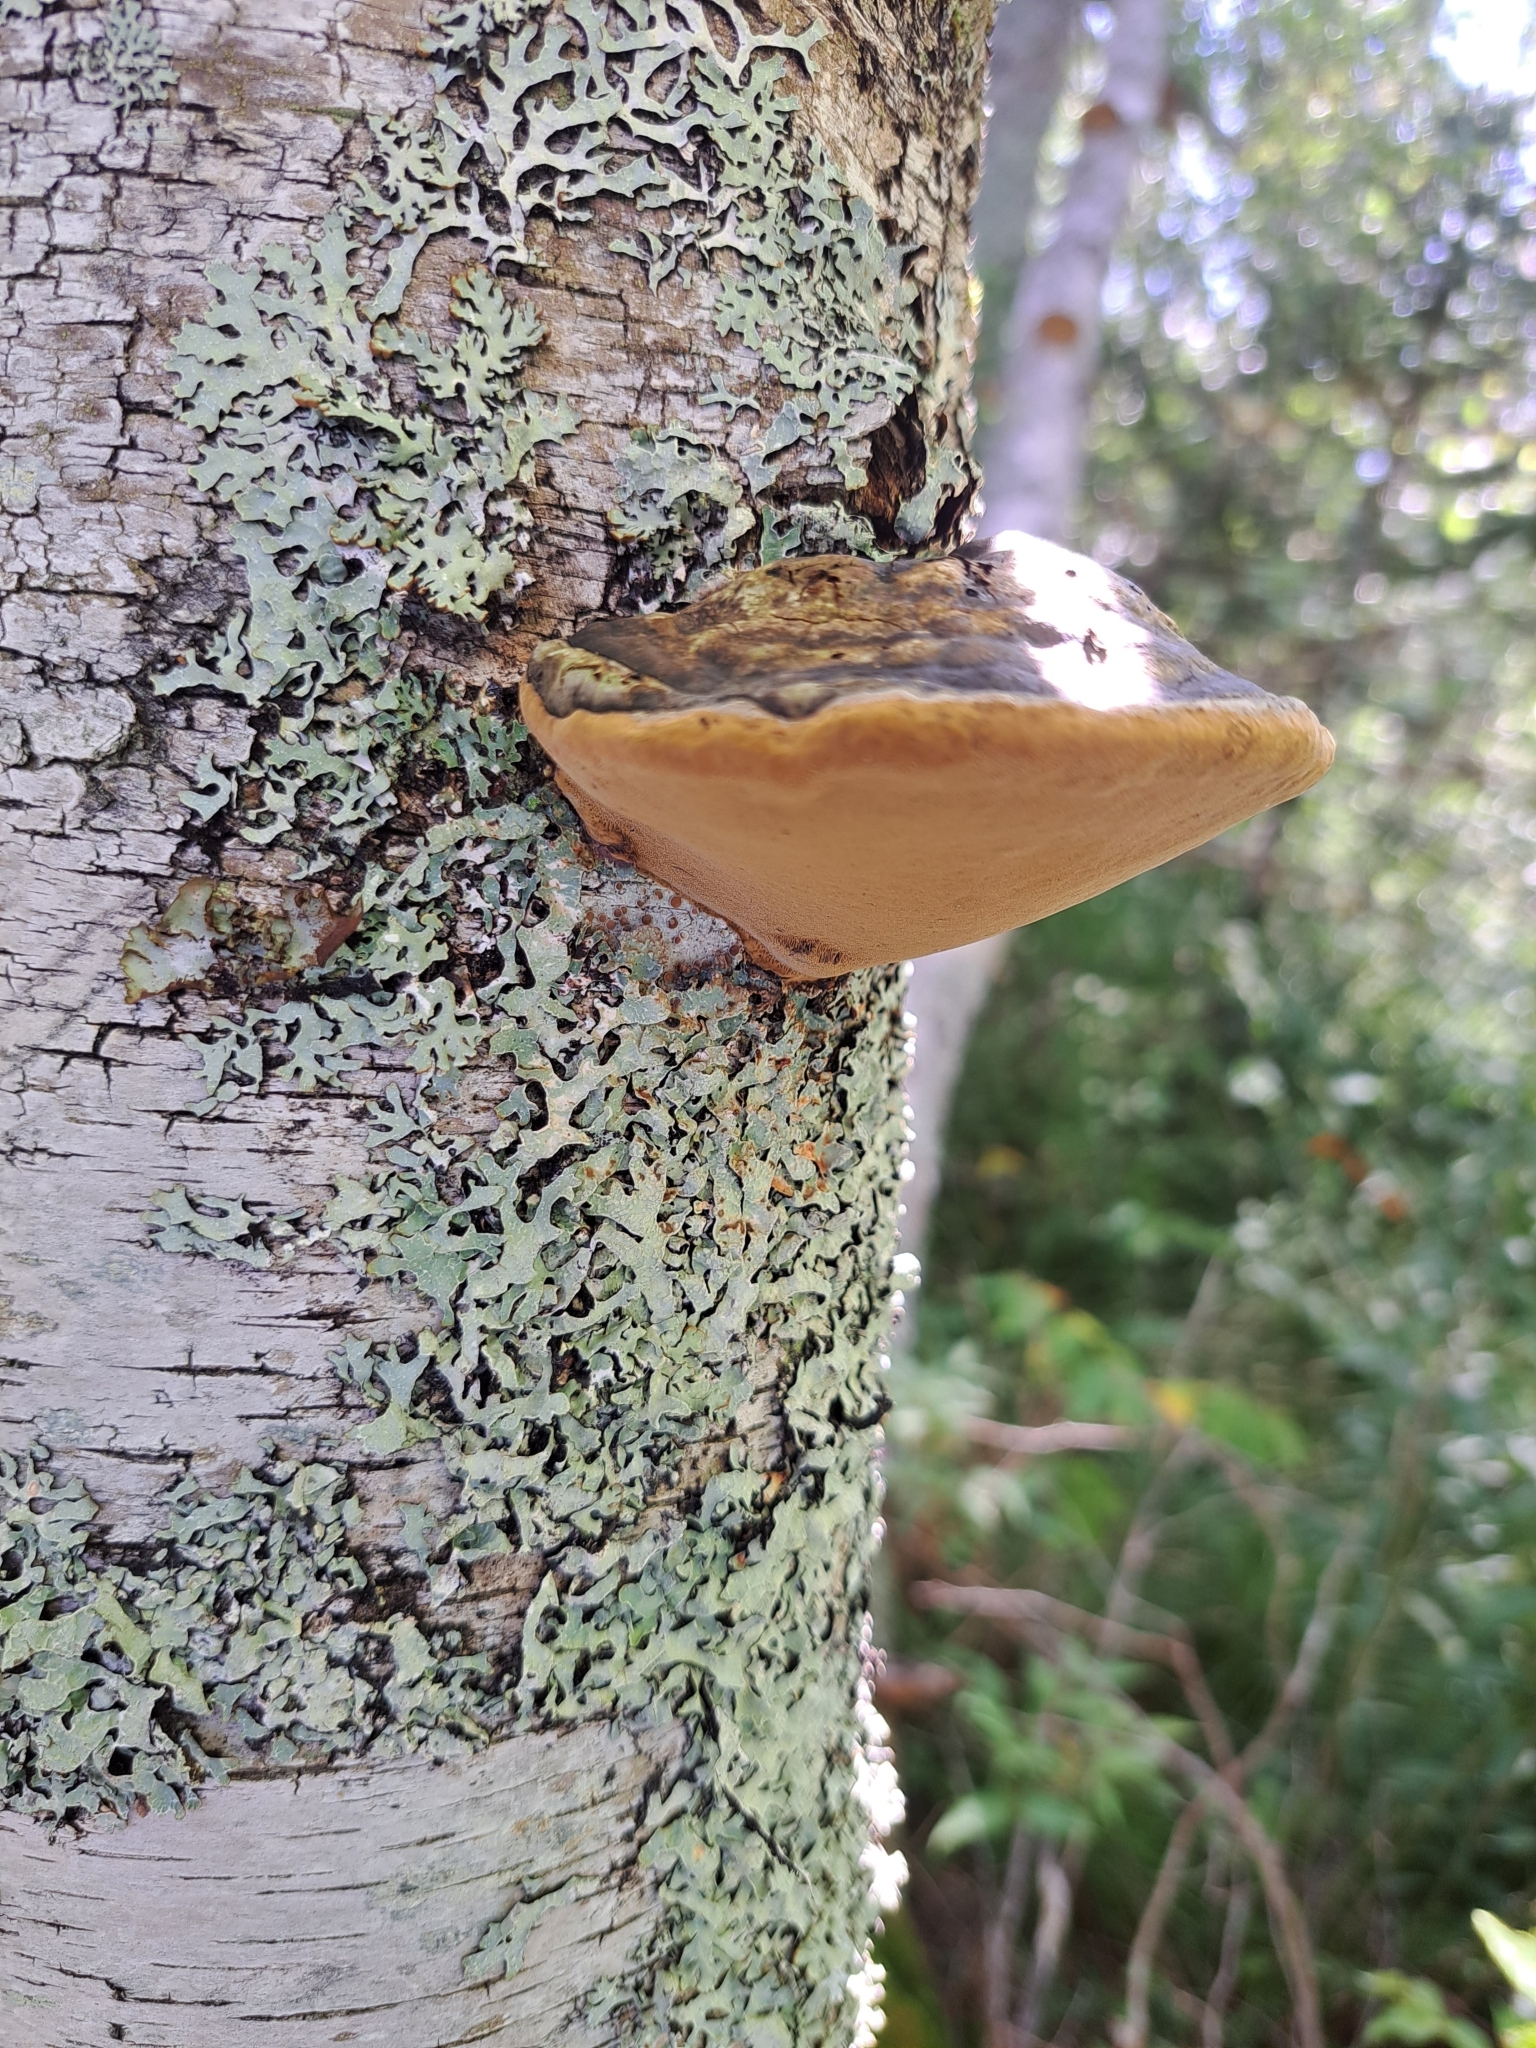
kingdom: Fungi
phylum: Basidiomycota
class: Agaricomycetes
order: Hymenochaetales
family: Hymenochaetaceae
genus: Phellinus
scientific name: Phellinus igniarius
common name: Willow bracket
